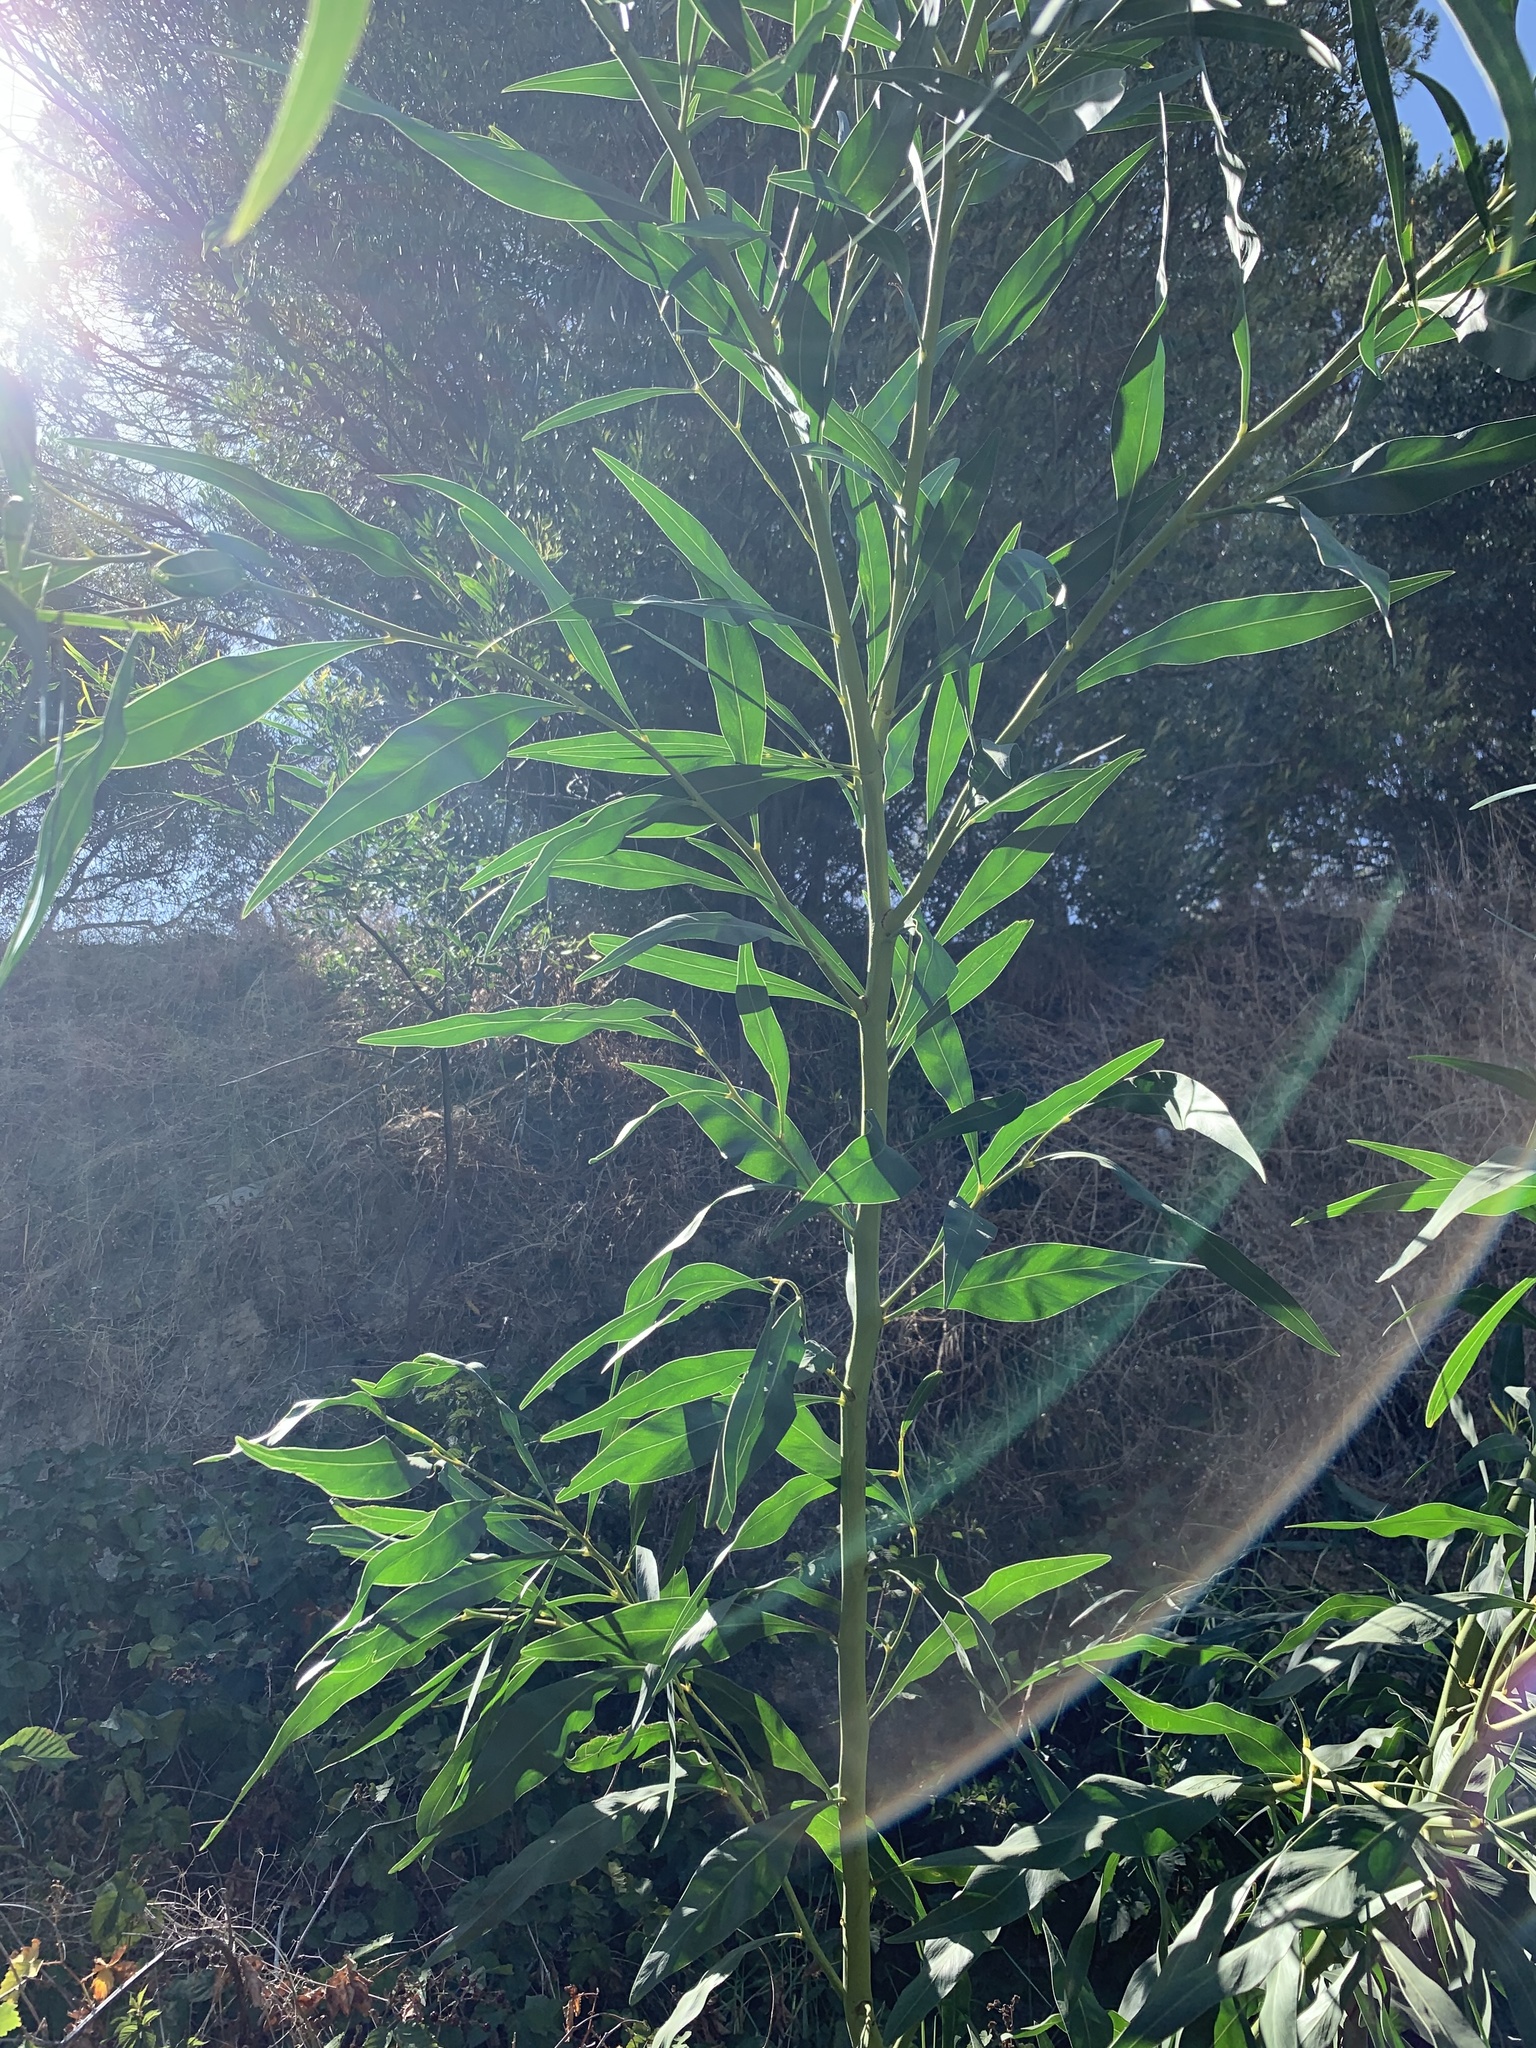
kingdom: Plantae
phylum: Tracheophyta
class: Magnoliopsida
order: Fabales
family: Fabaceae
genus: Acacia
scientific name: Acacia saligna
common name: Orange wattle
